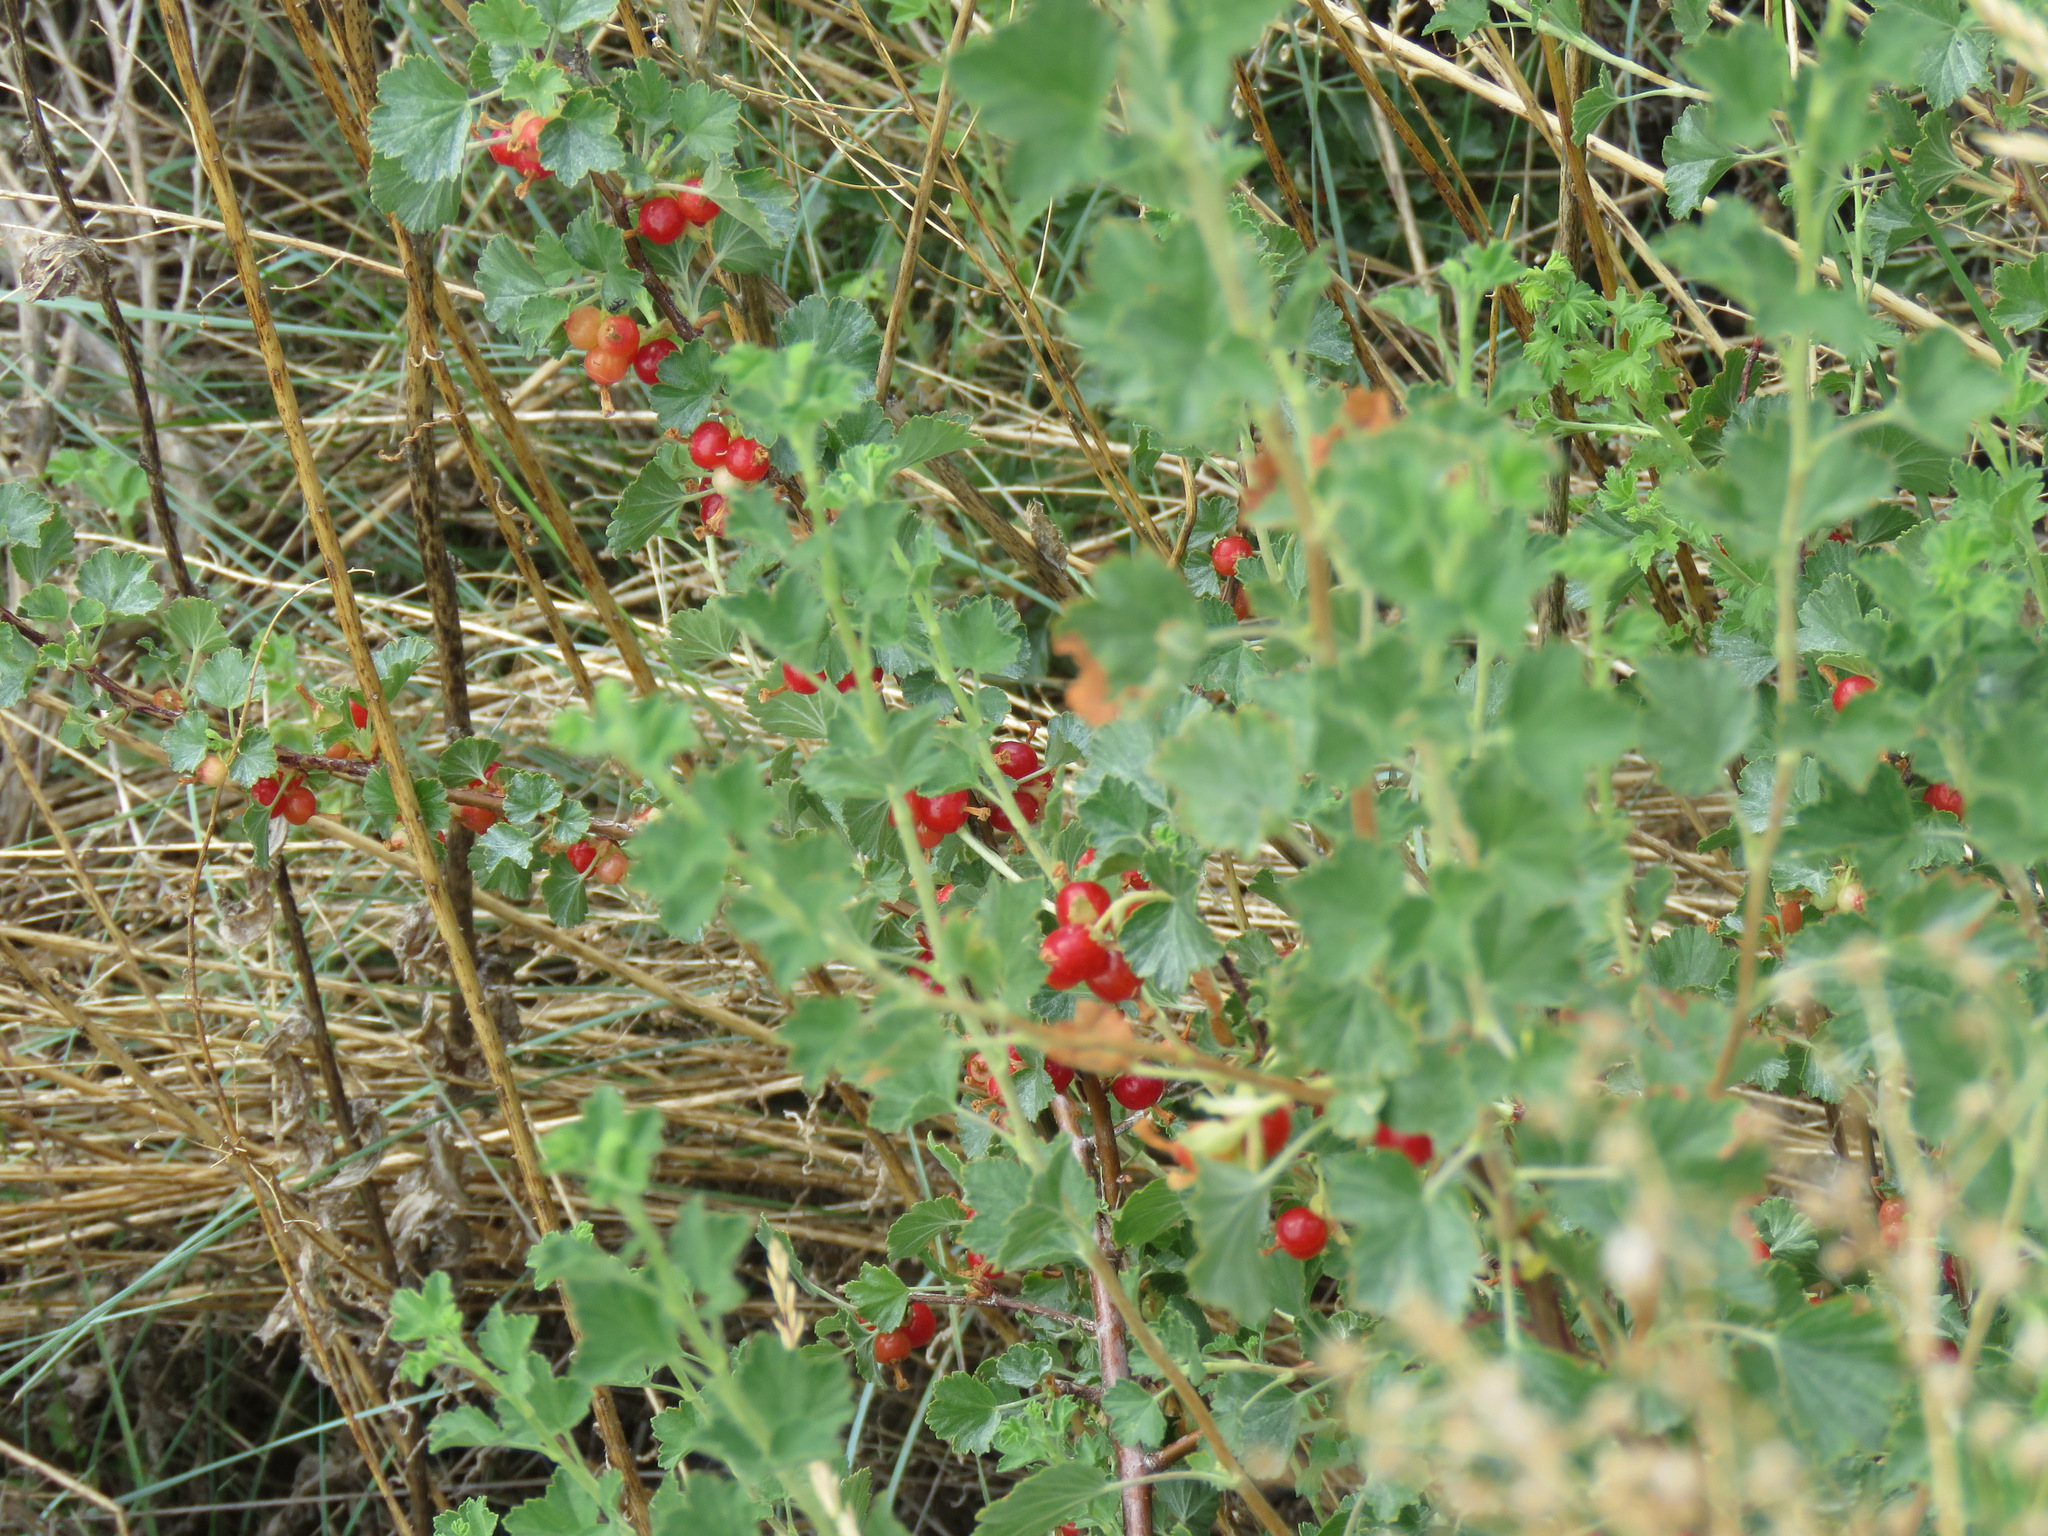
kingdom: Plantae
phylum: Tracheophyta
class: Magnoliopsida
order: Saxifragales
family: Grossulariaceae
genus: Ribes
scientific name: Ribes cereum
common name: Wax currant
